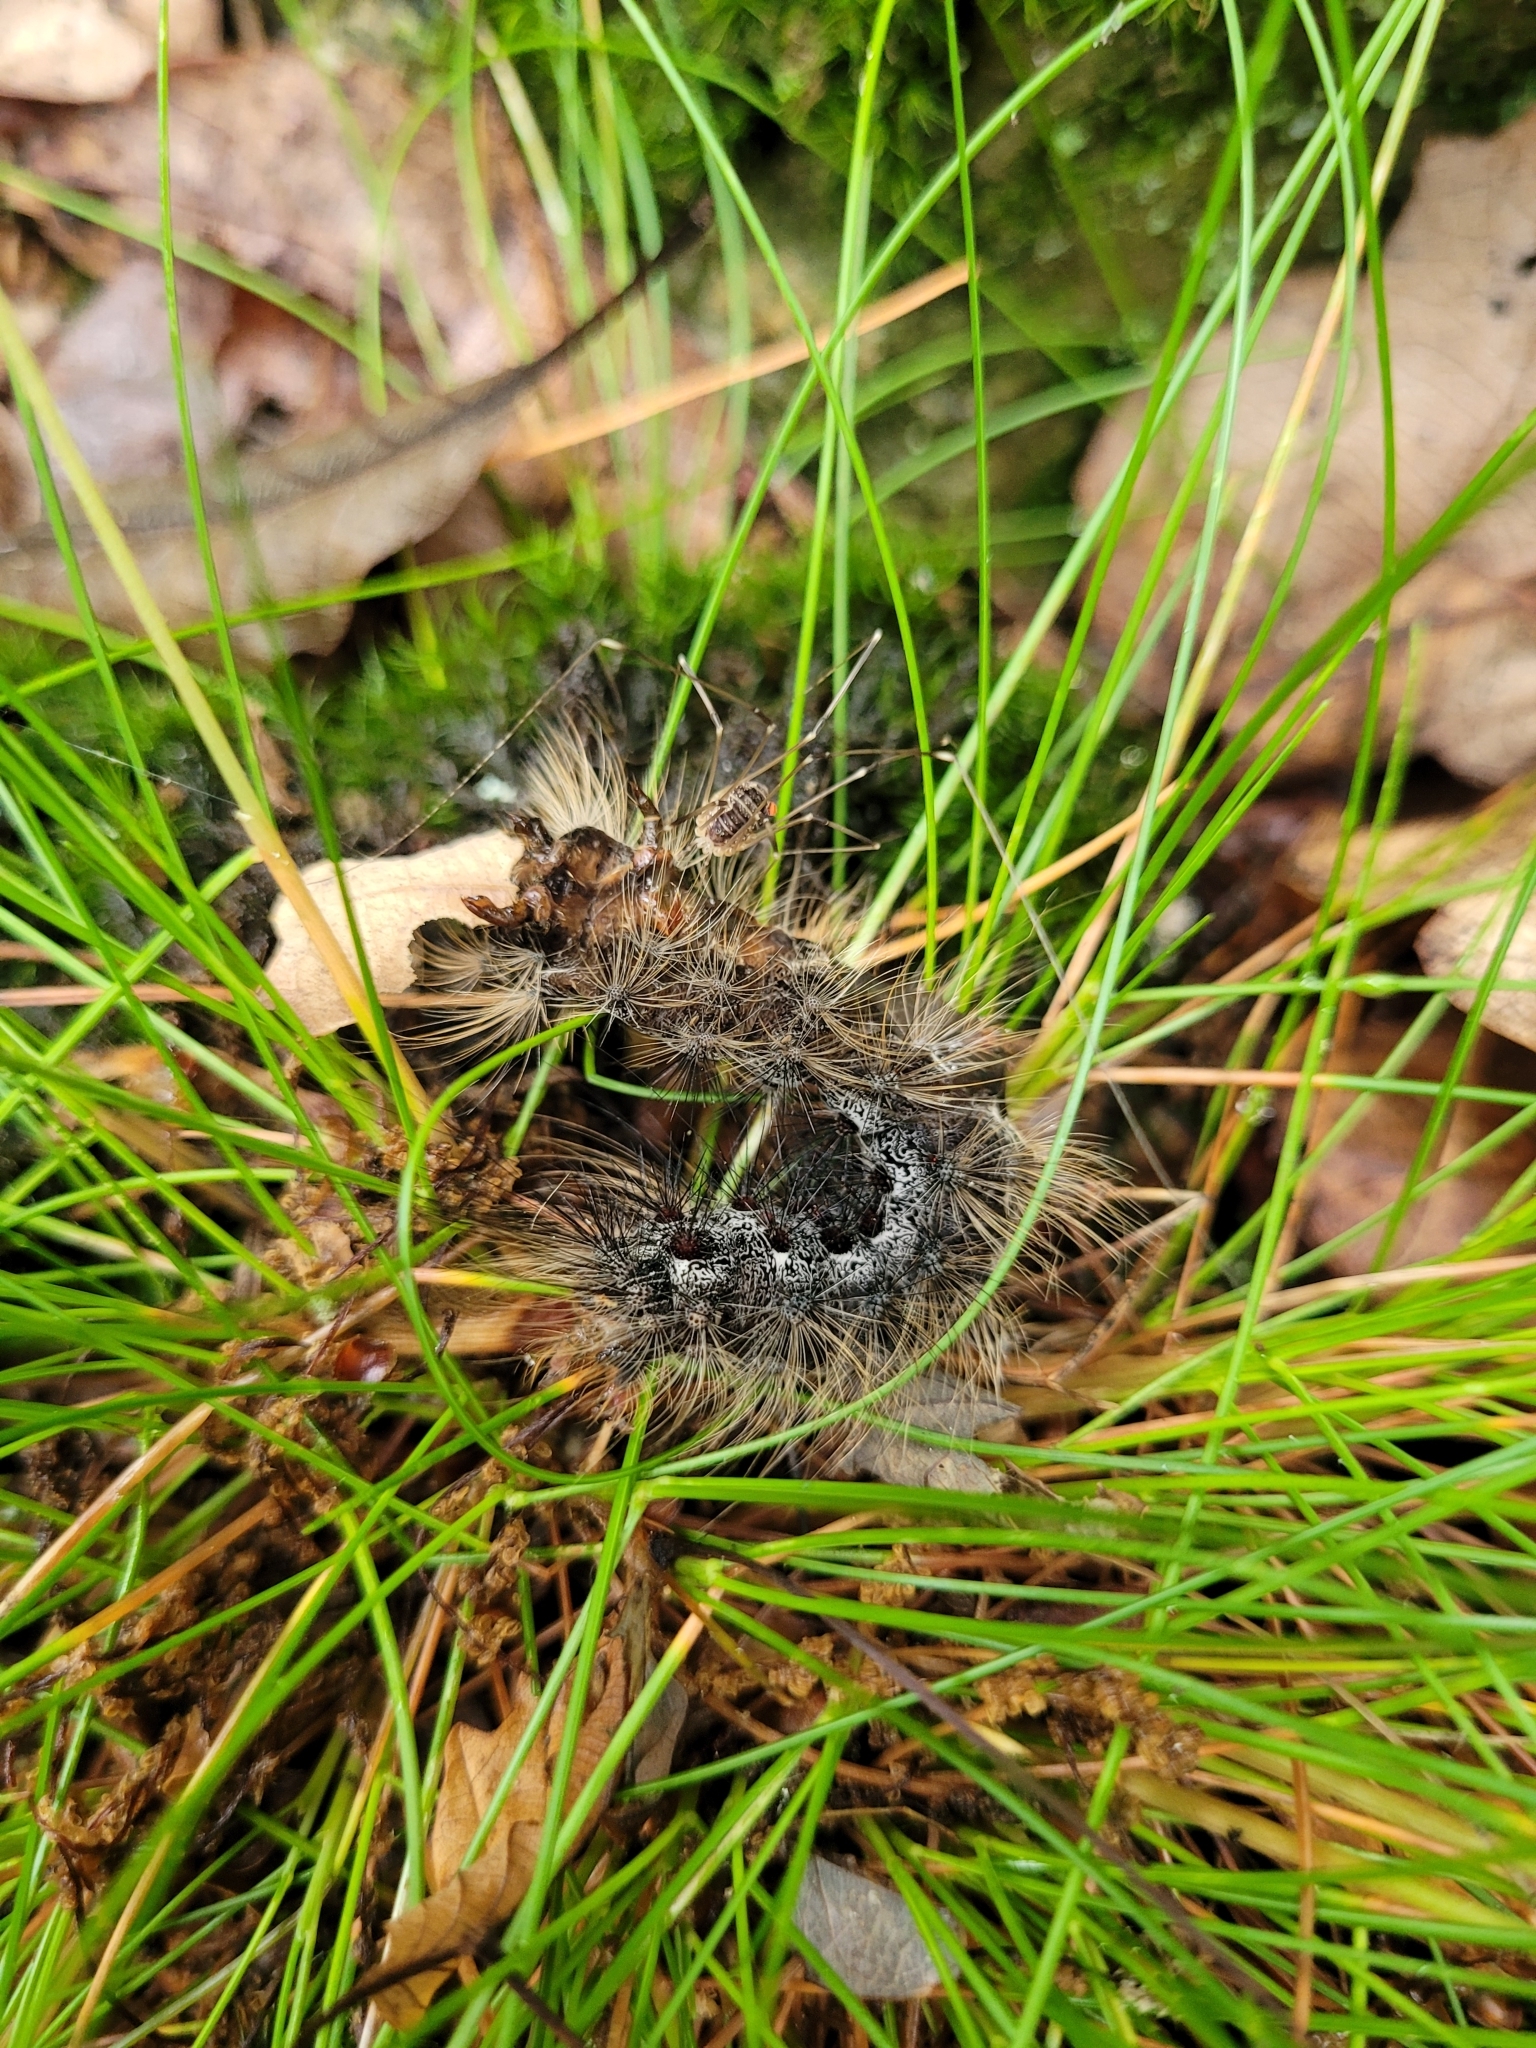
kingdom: Animalia
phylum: Arthropoda
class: Insecta
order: Lepidoptera
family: Erebidae
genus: Lymantria
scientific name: Lymantria dispar
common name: Gypsy moth
